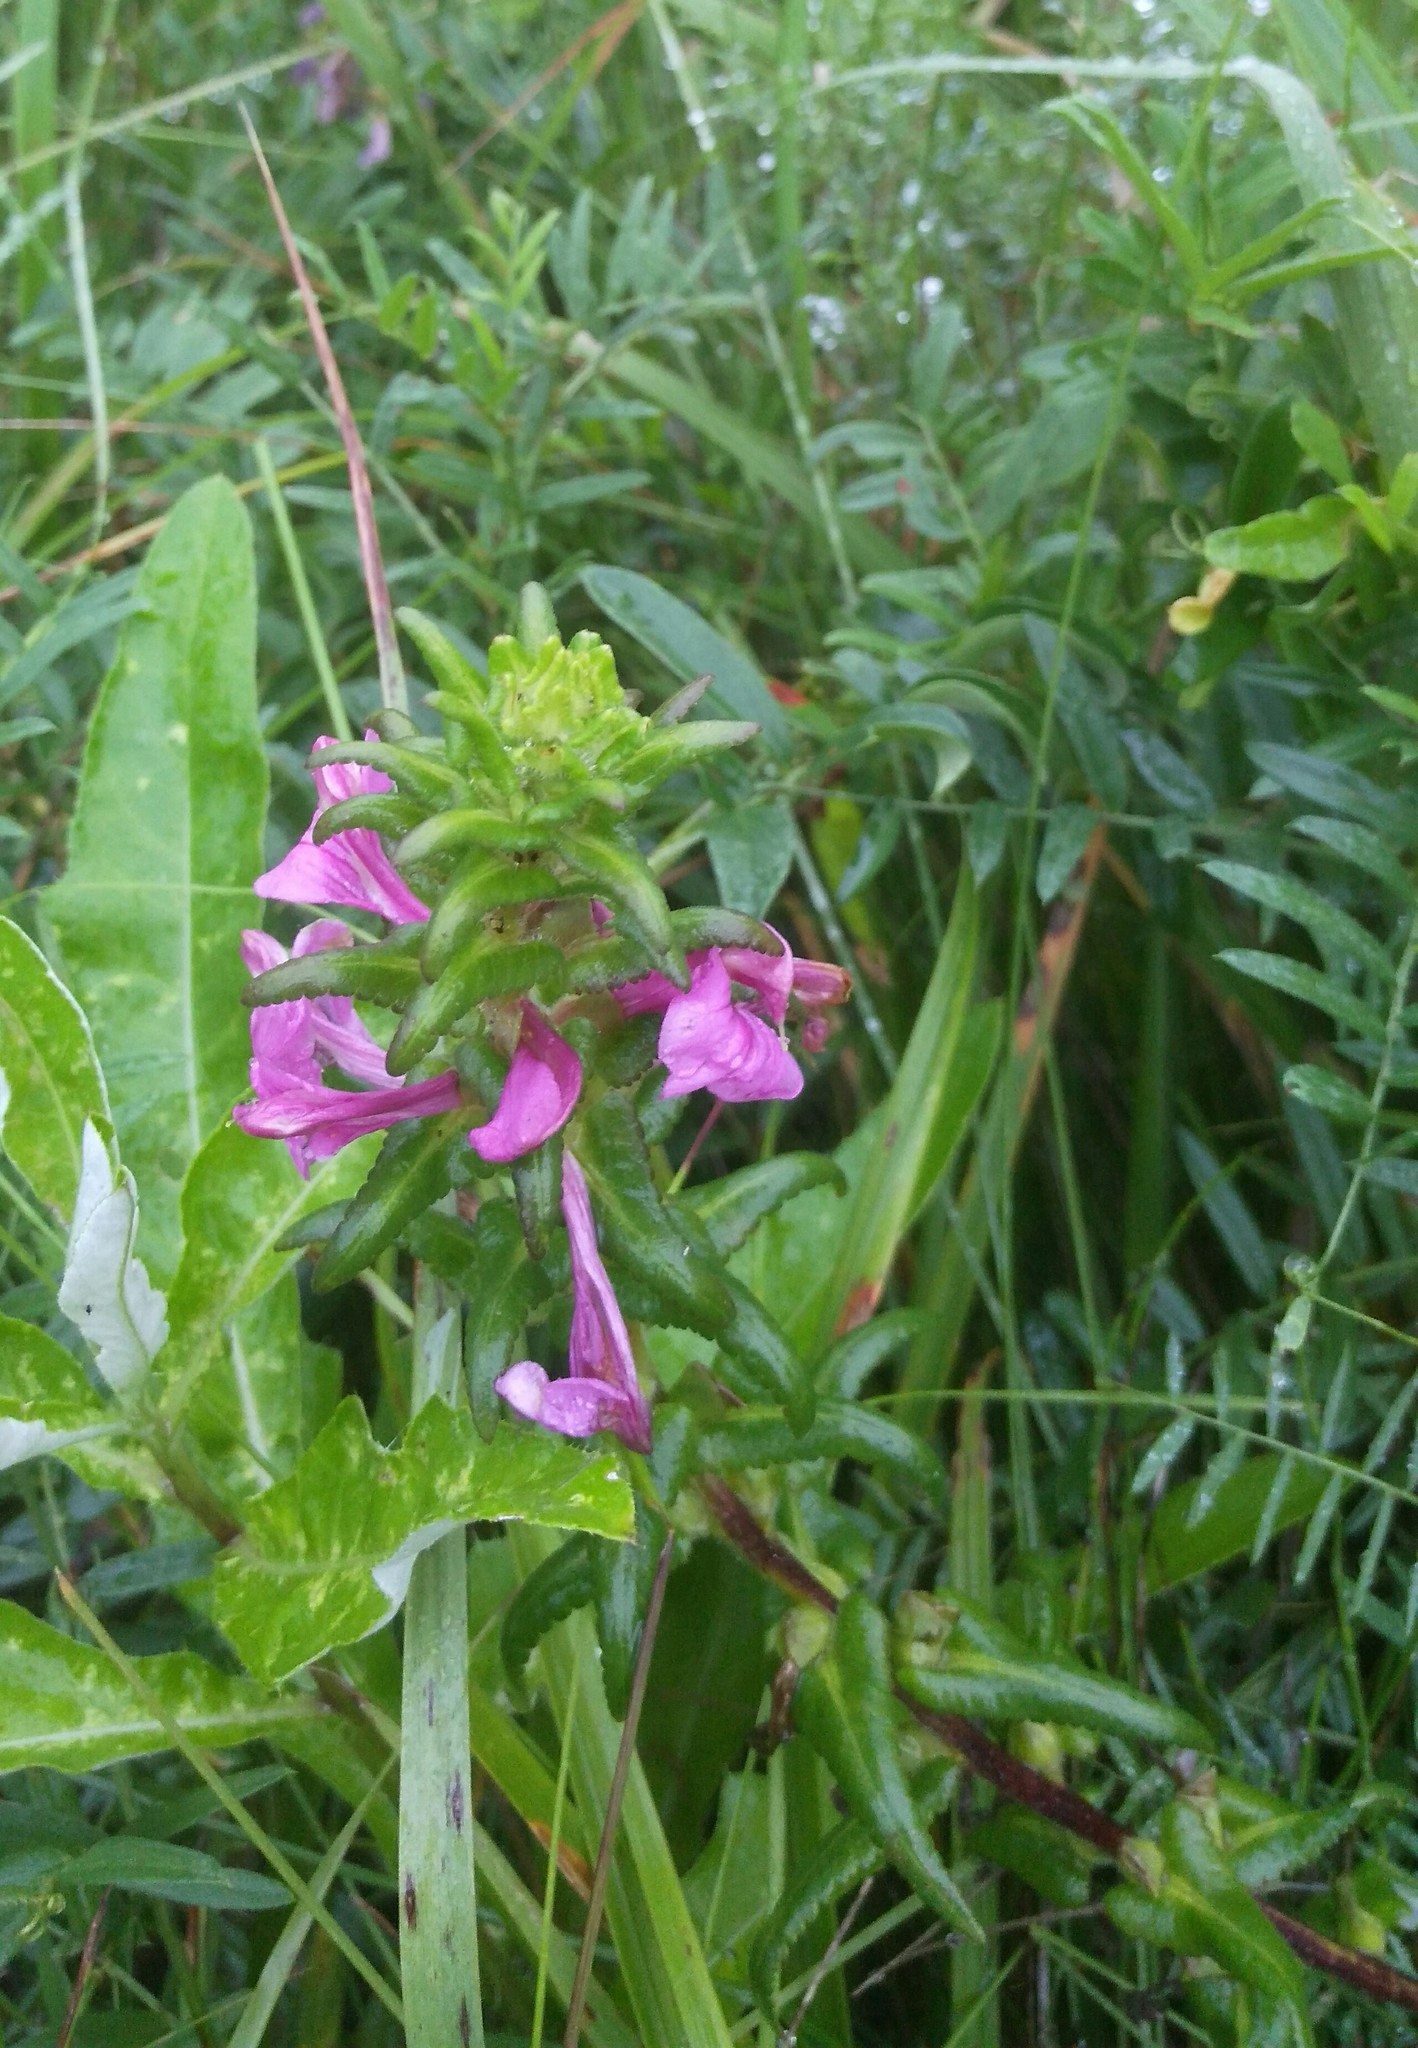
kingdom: Plantae
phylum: Tracheophyta
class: Magnoliopsida
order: Lamiales
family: Orobanchaceae
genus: Pedicularis
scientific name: Pedicularis resupinata
